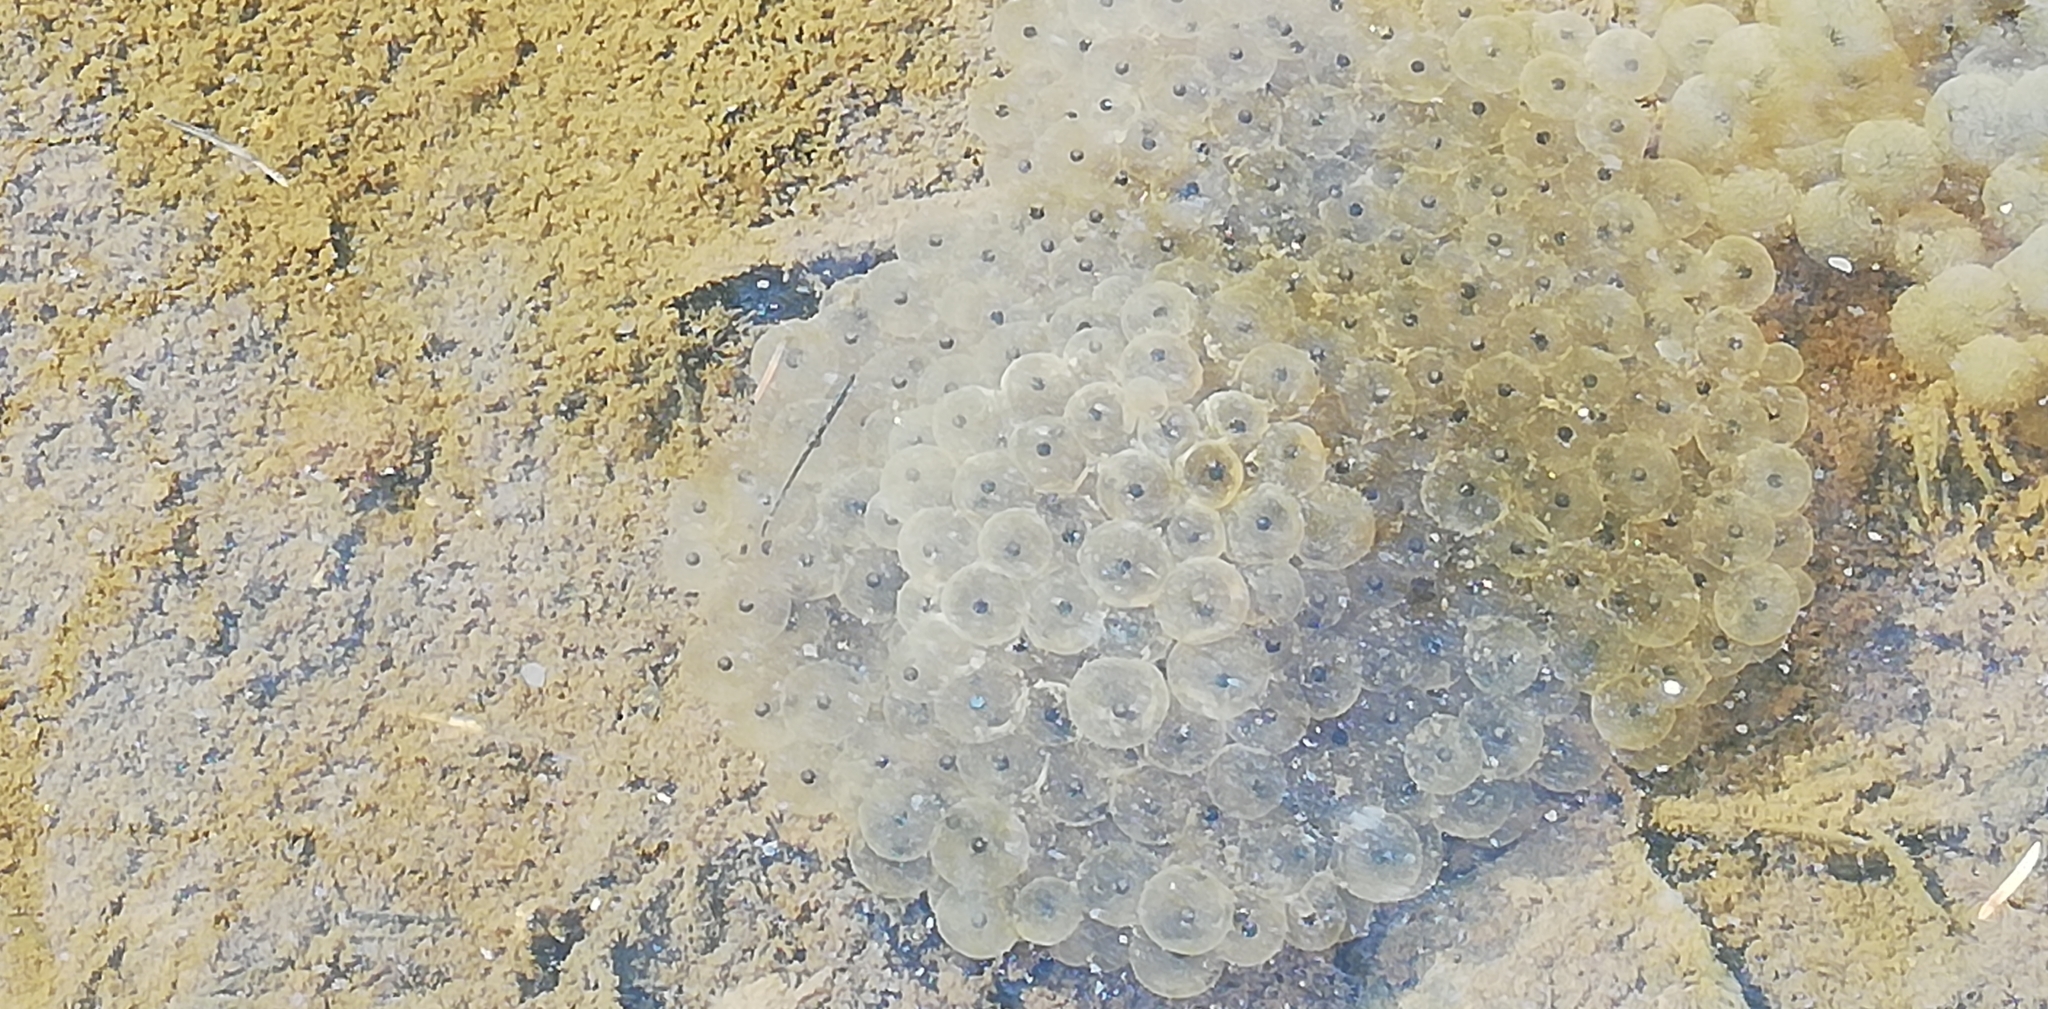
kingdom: Animalia
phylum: Chordata
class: Amphibia
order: Anura
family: Ranidae
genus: Rana
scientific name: Rana temporaria
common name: Common frog
